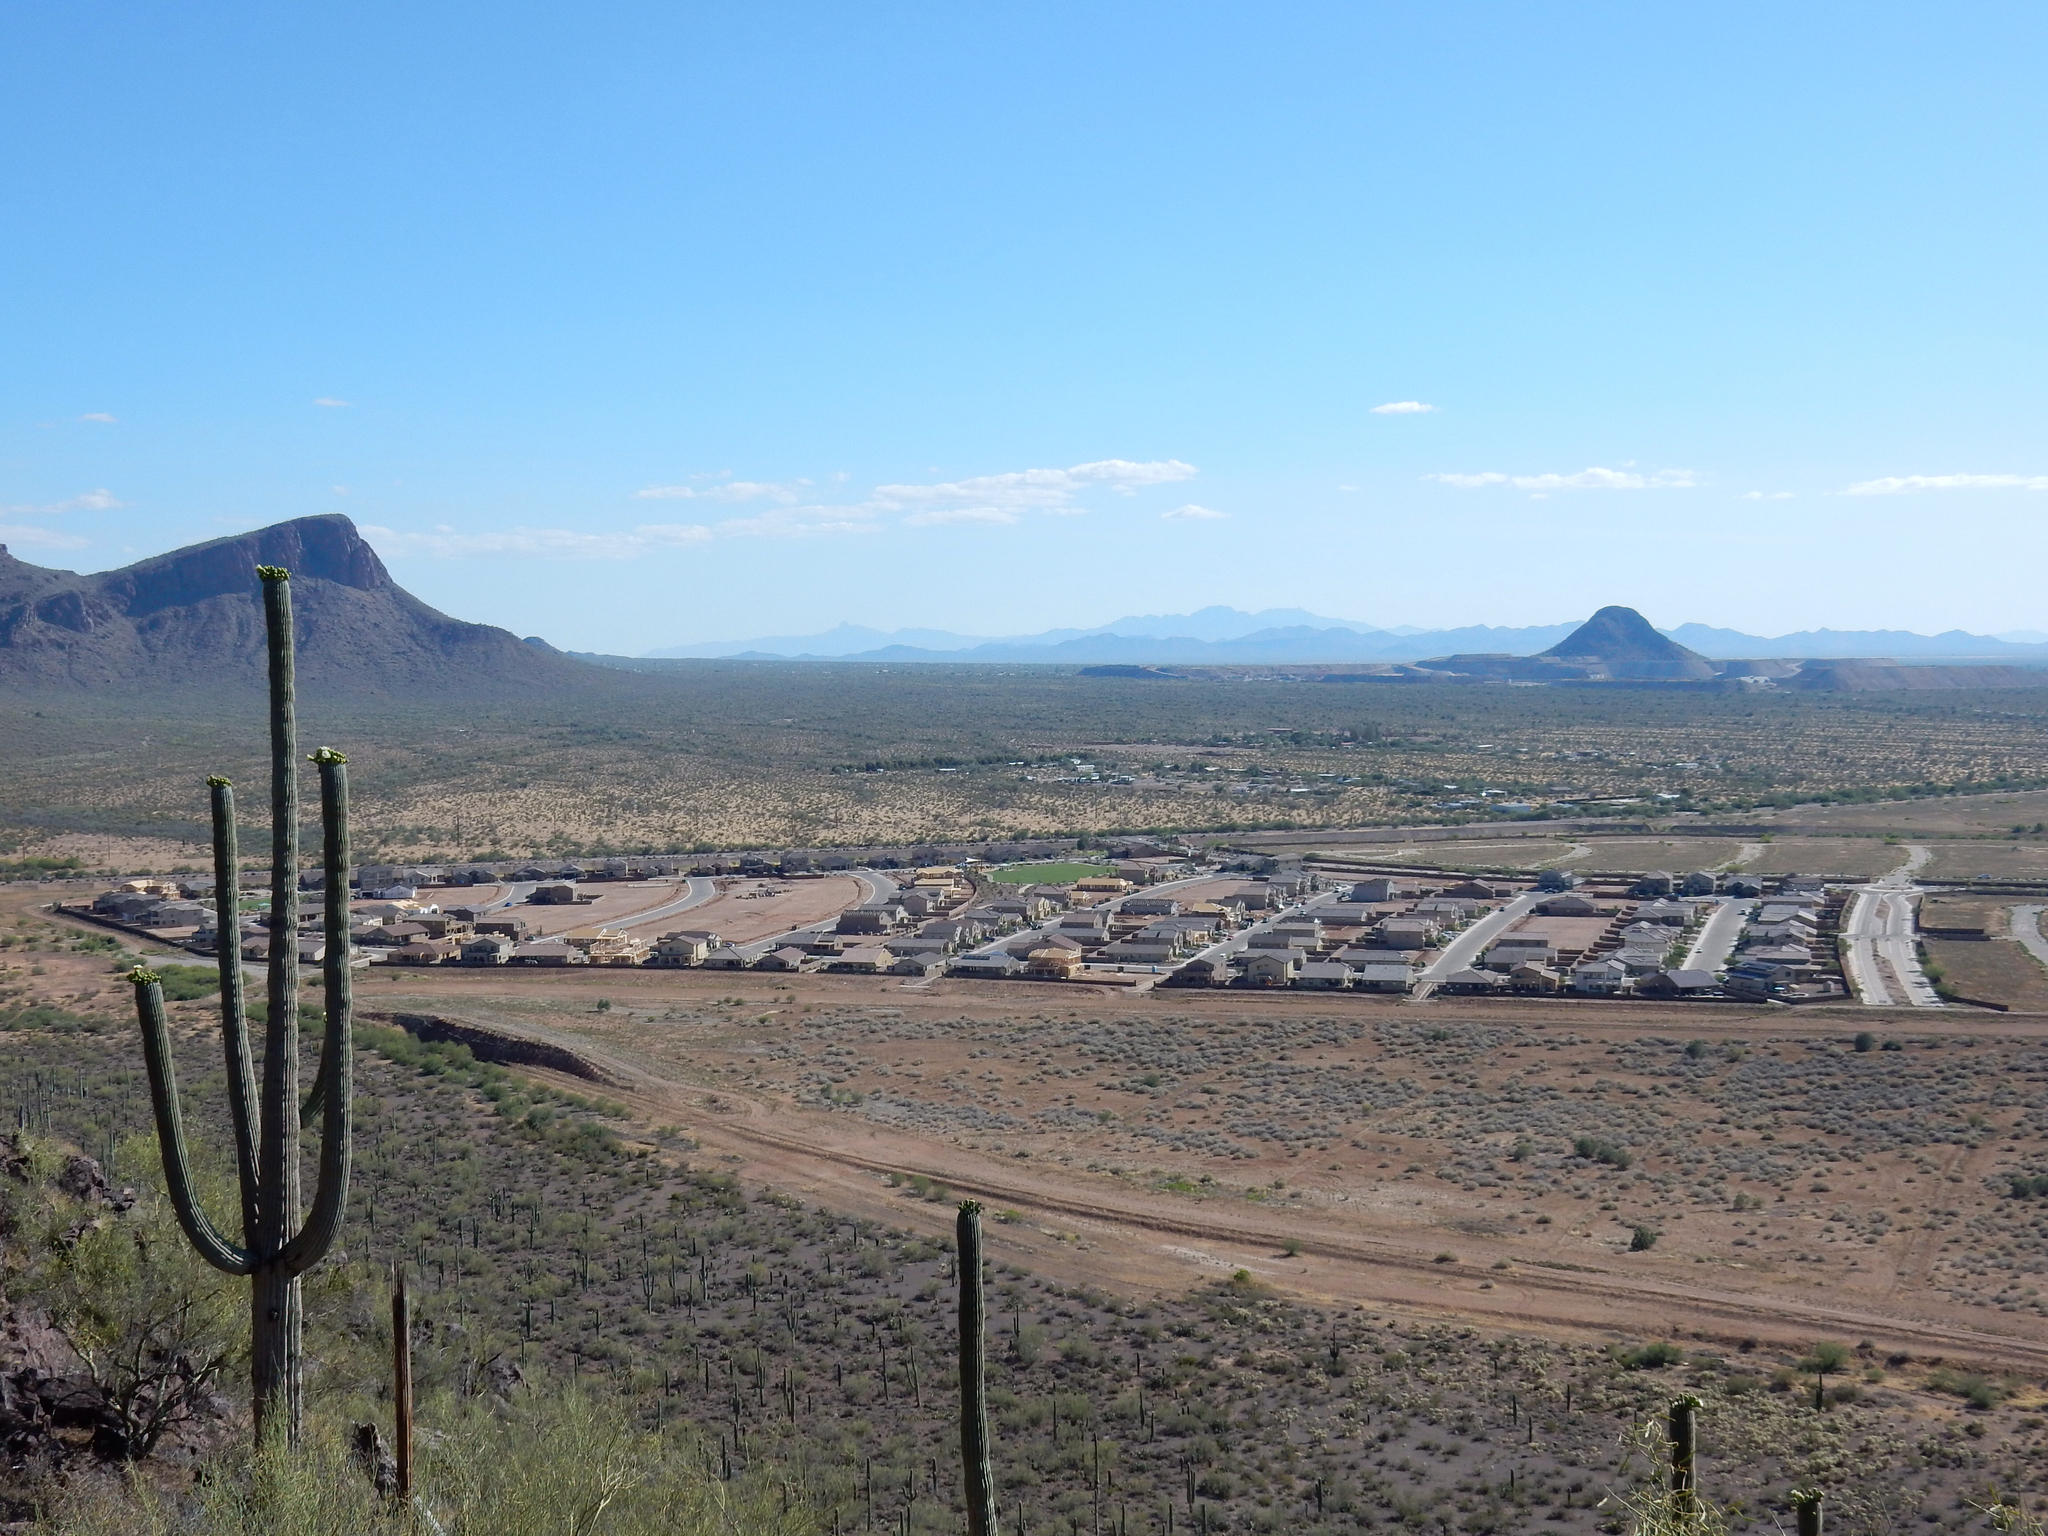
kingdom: Plantae
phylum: Tracheophyta
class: Magnoliopsida
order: Caryophyllales
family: Cactaceae
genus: Carnegiea
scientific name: Carnegiea gigantea
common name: Saguaro
